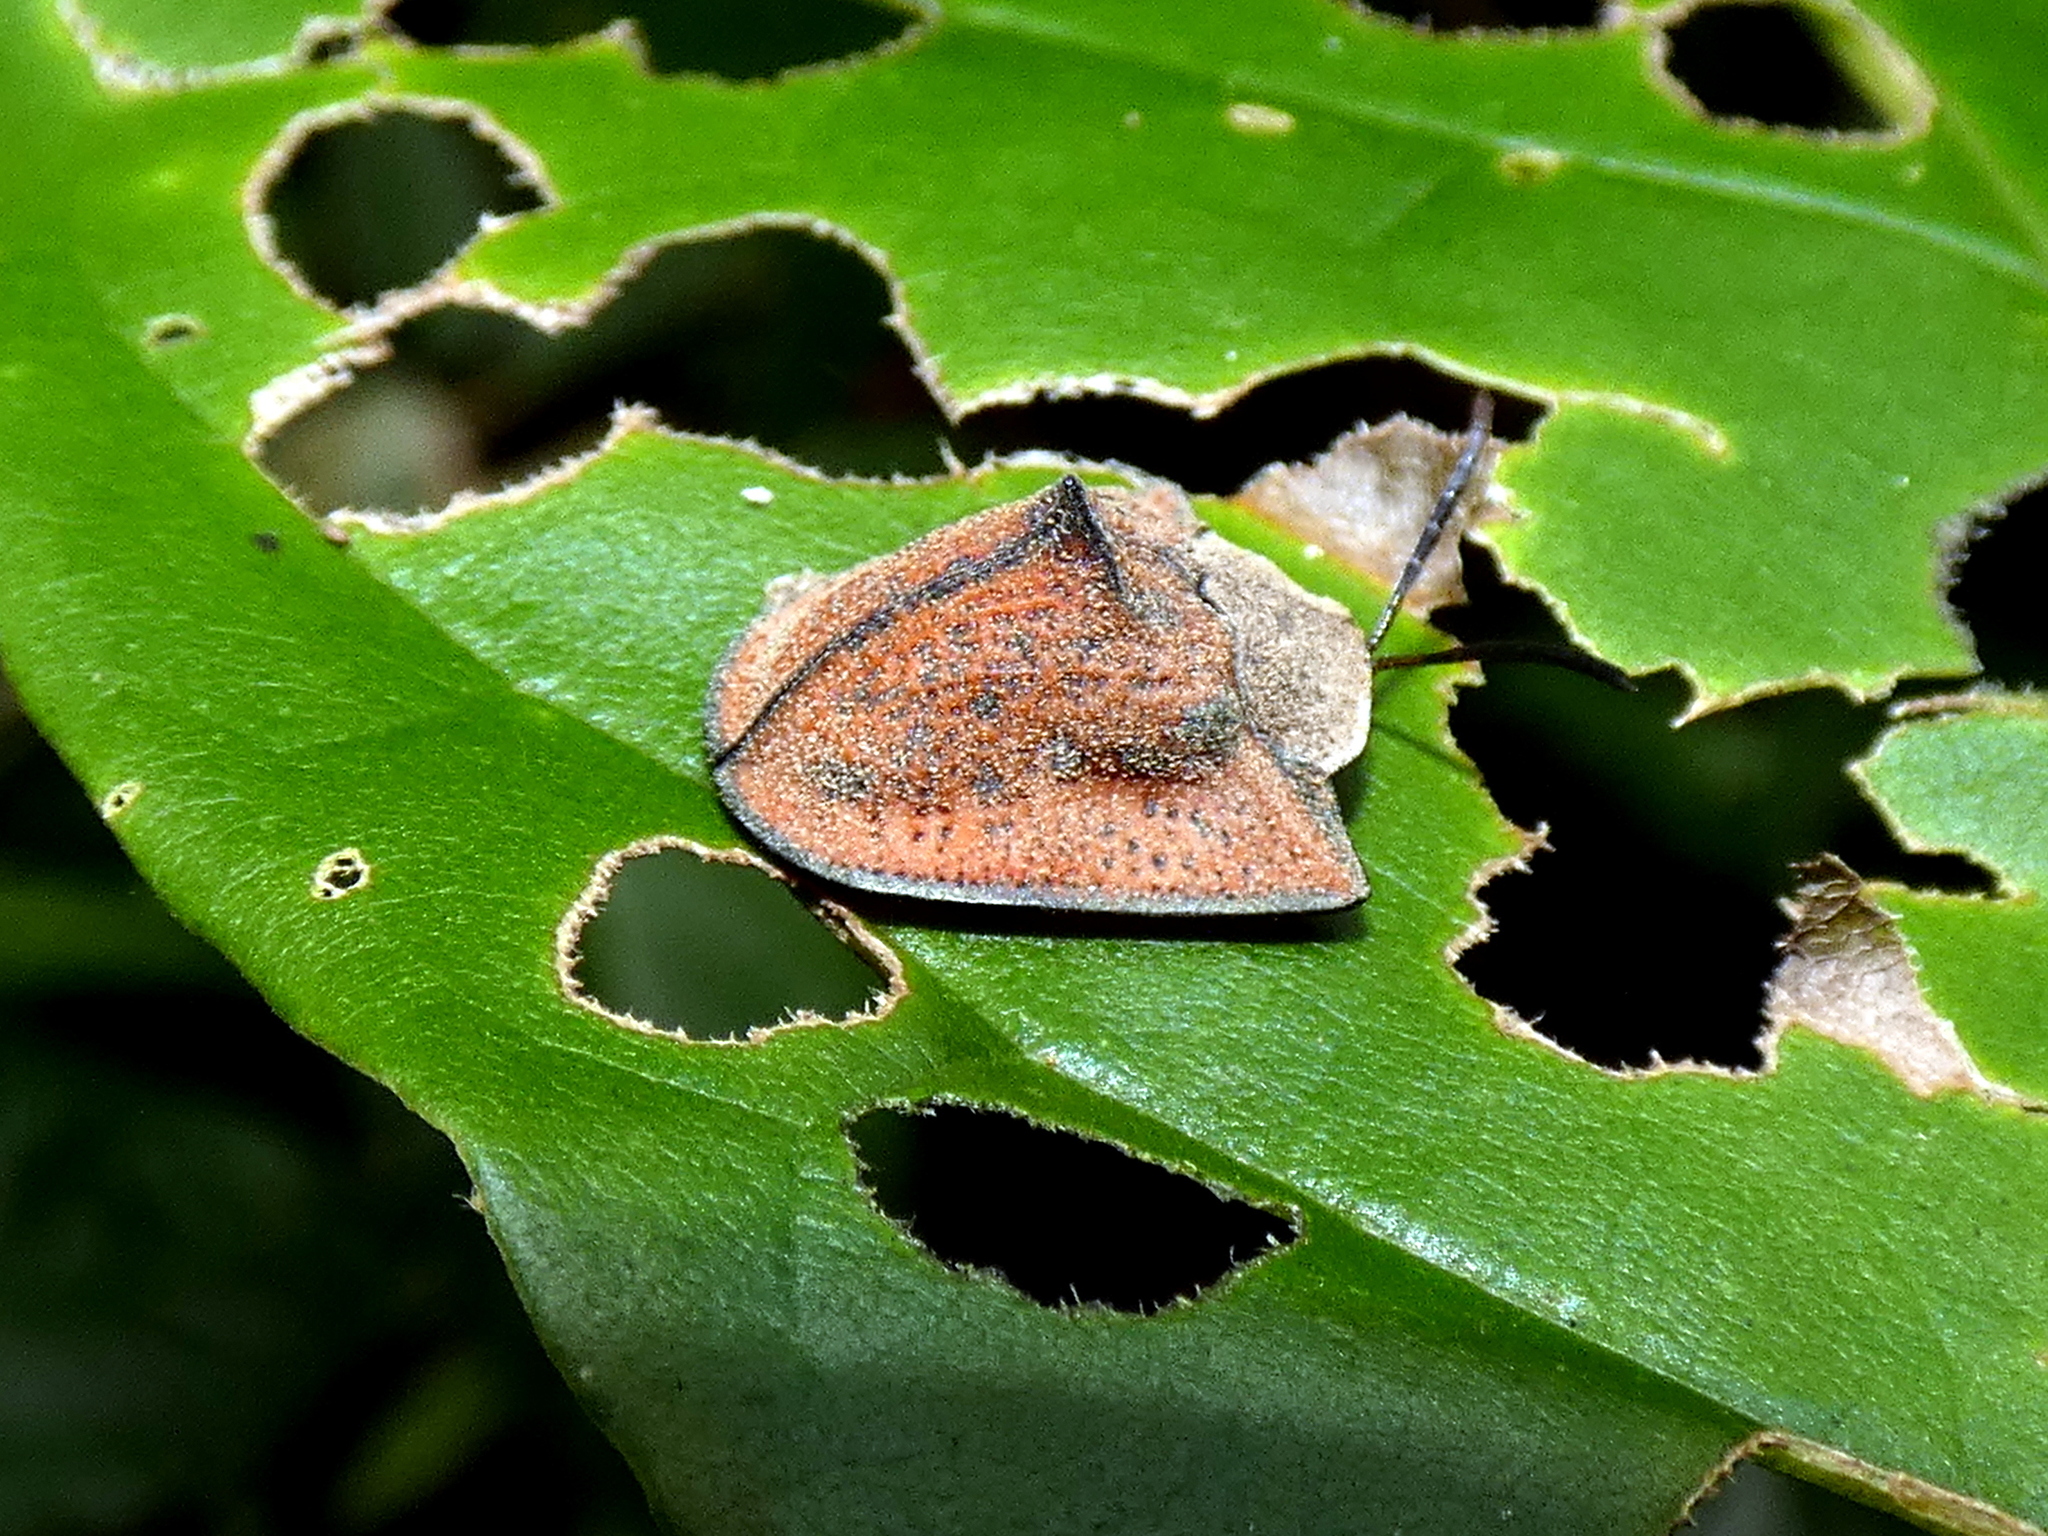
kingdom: Animalia
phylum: Arthropoda
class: Insecta
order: Coleoptera
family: Chrysomelidae
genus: Dorynota
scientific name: Dorynota insidiosa
